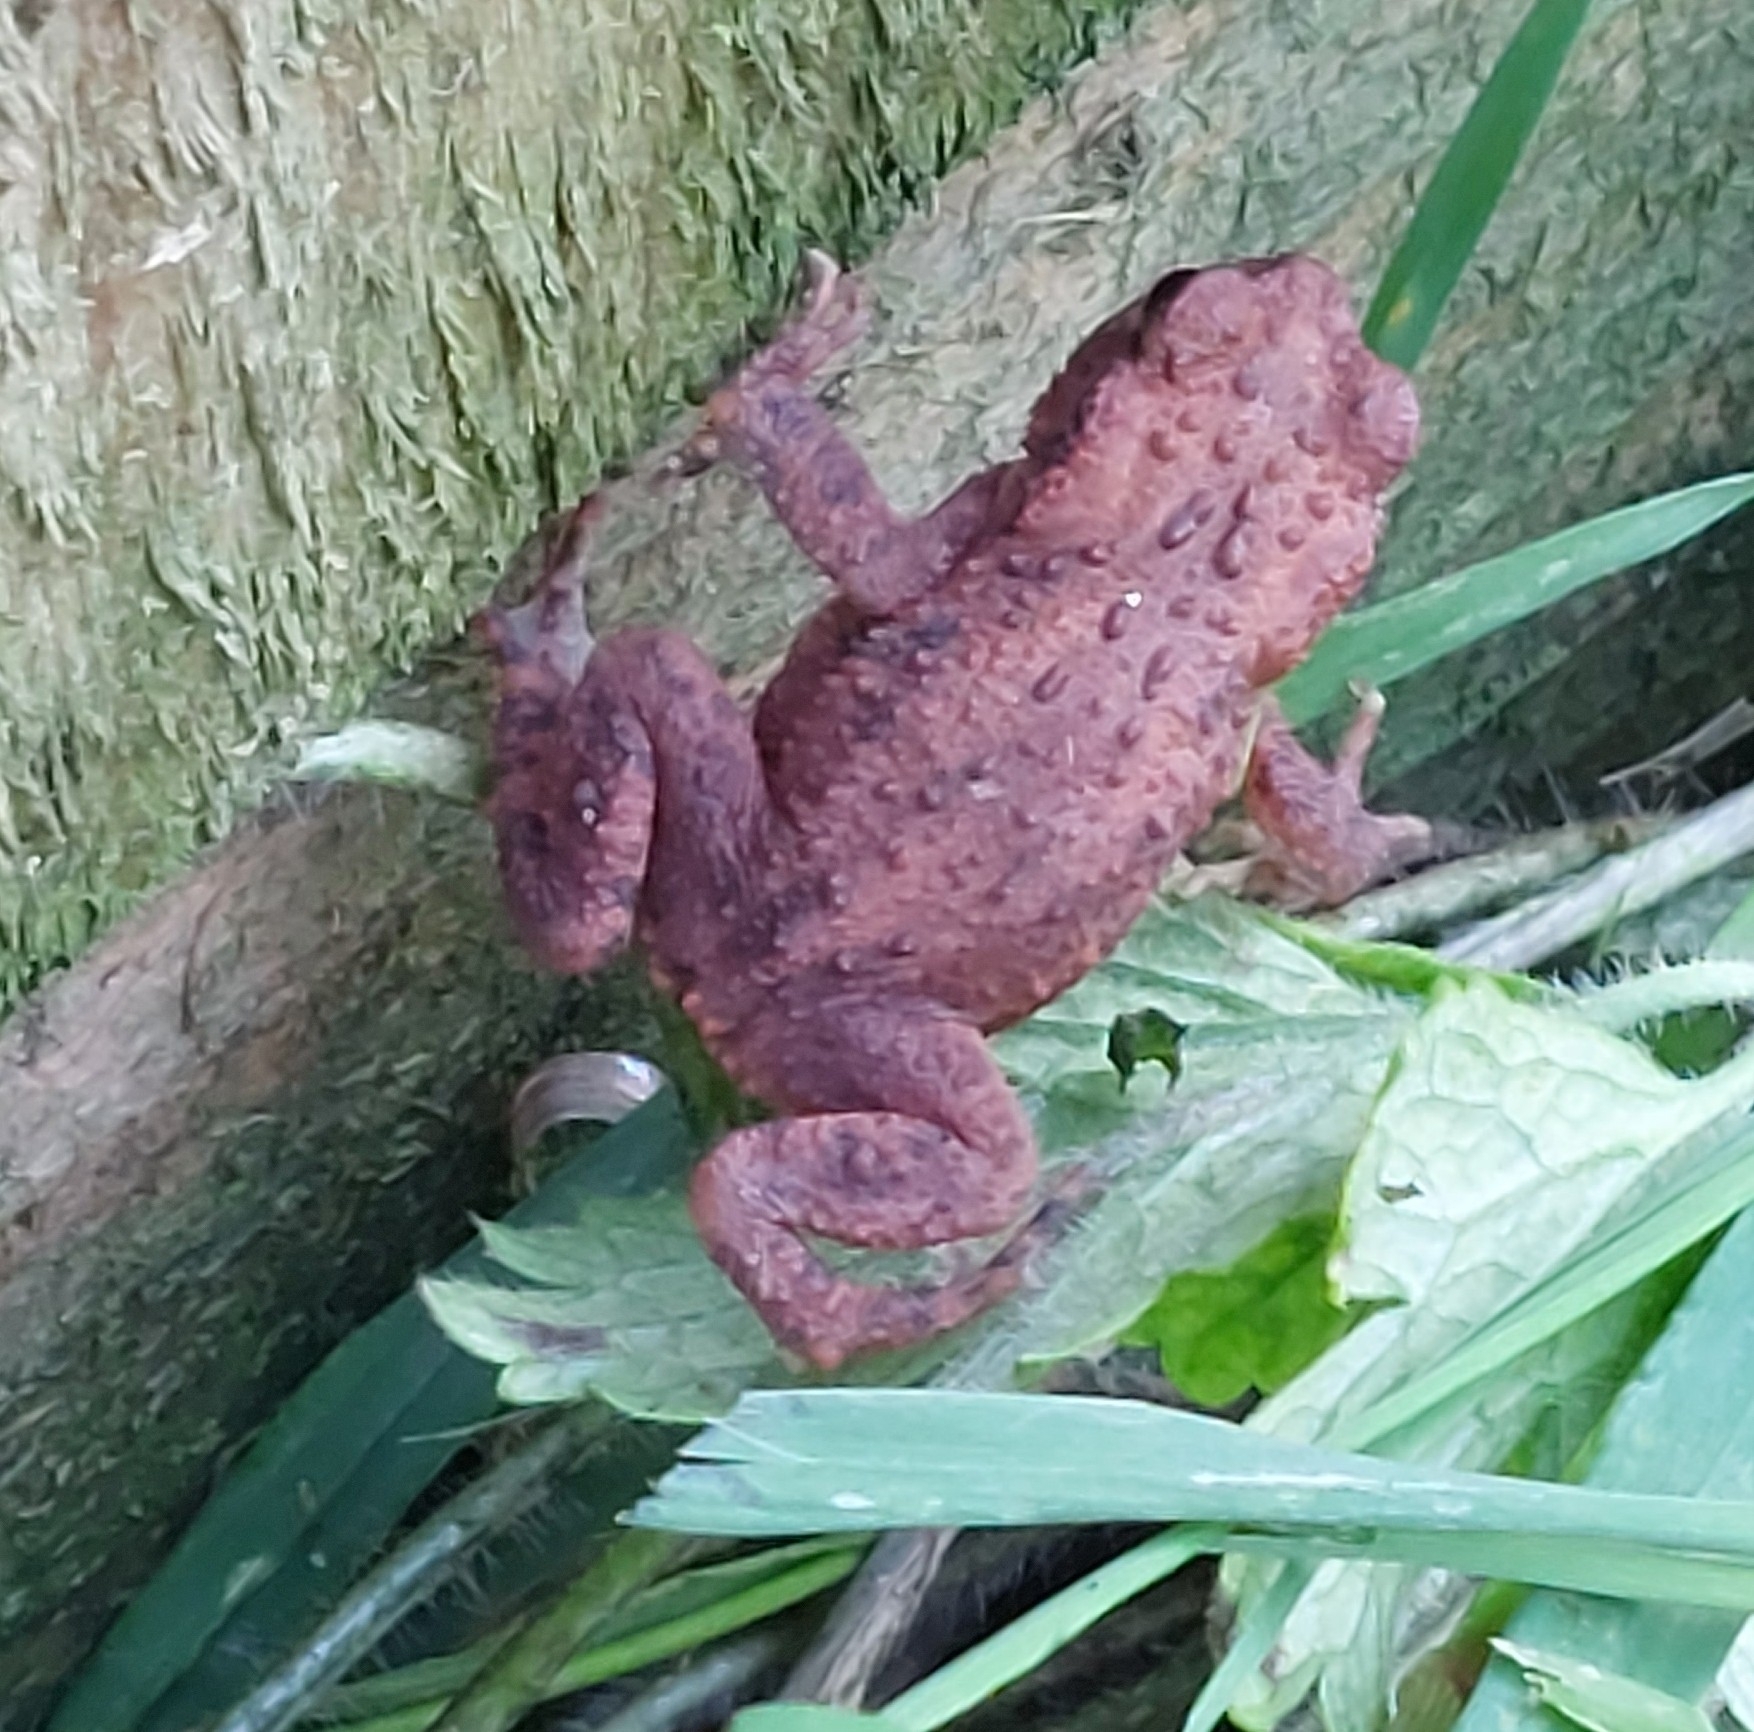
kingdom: Animalia
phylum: Chordata
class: Amphibia
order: Anura
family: Bufonidae
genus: Bufo
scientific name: Bufo bufo
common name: Common toad
